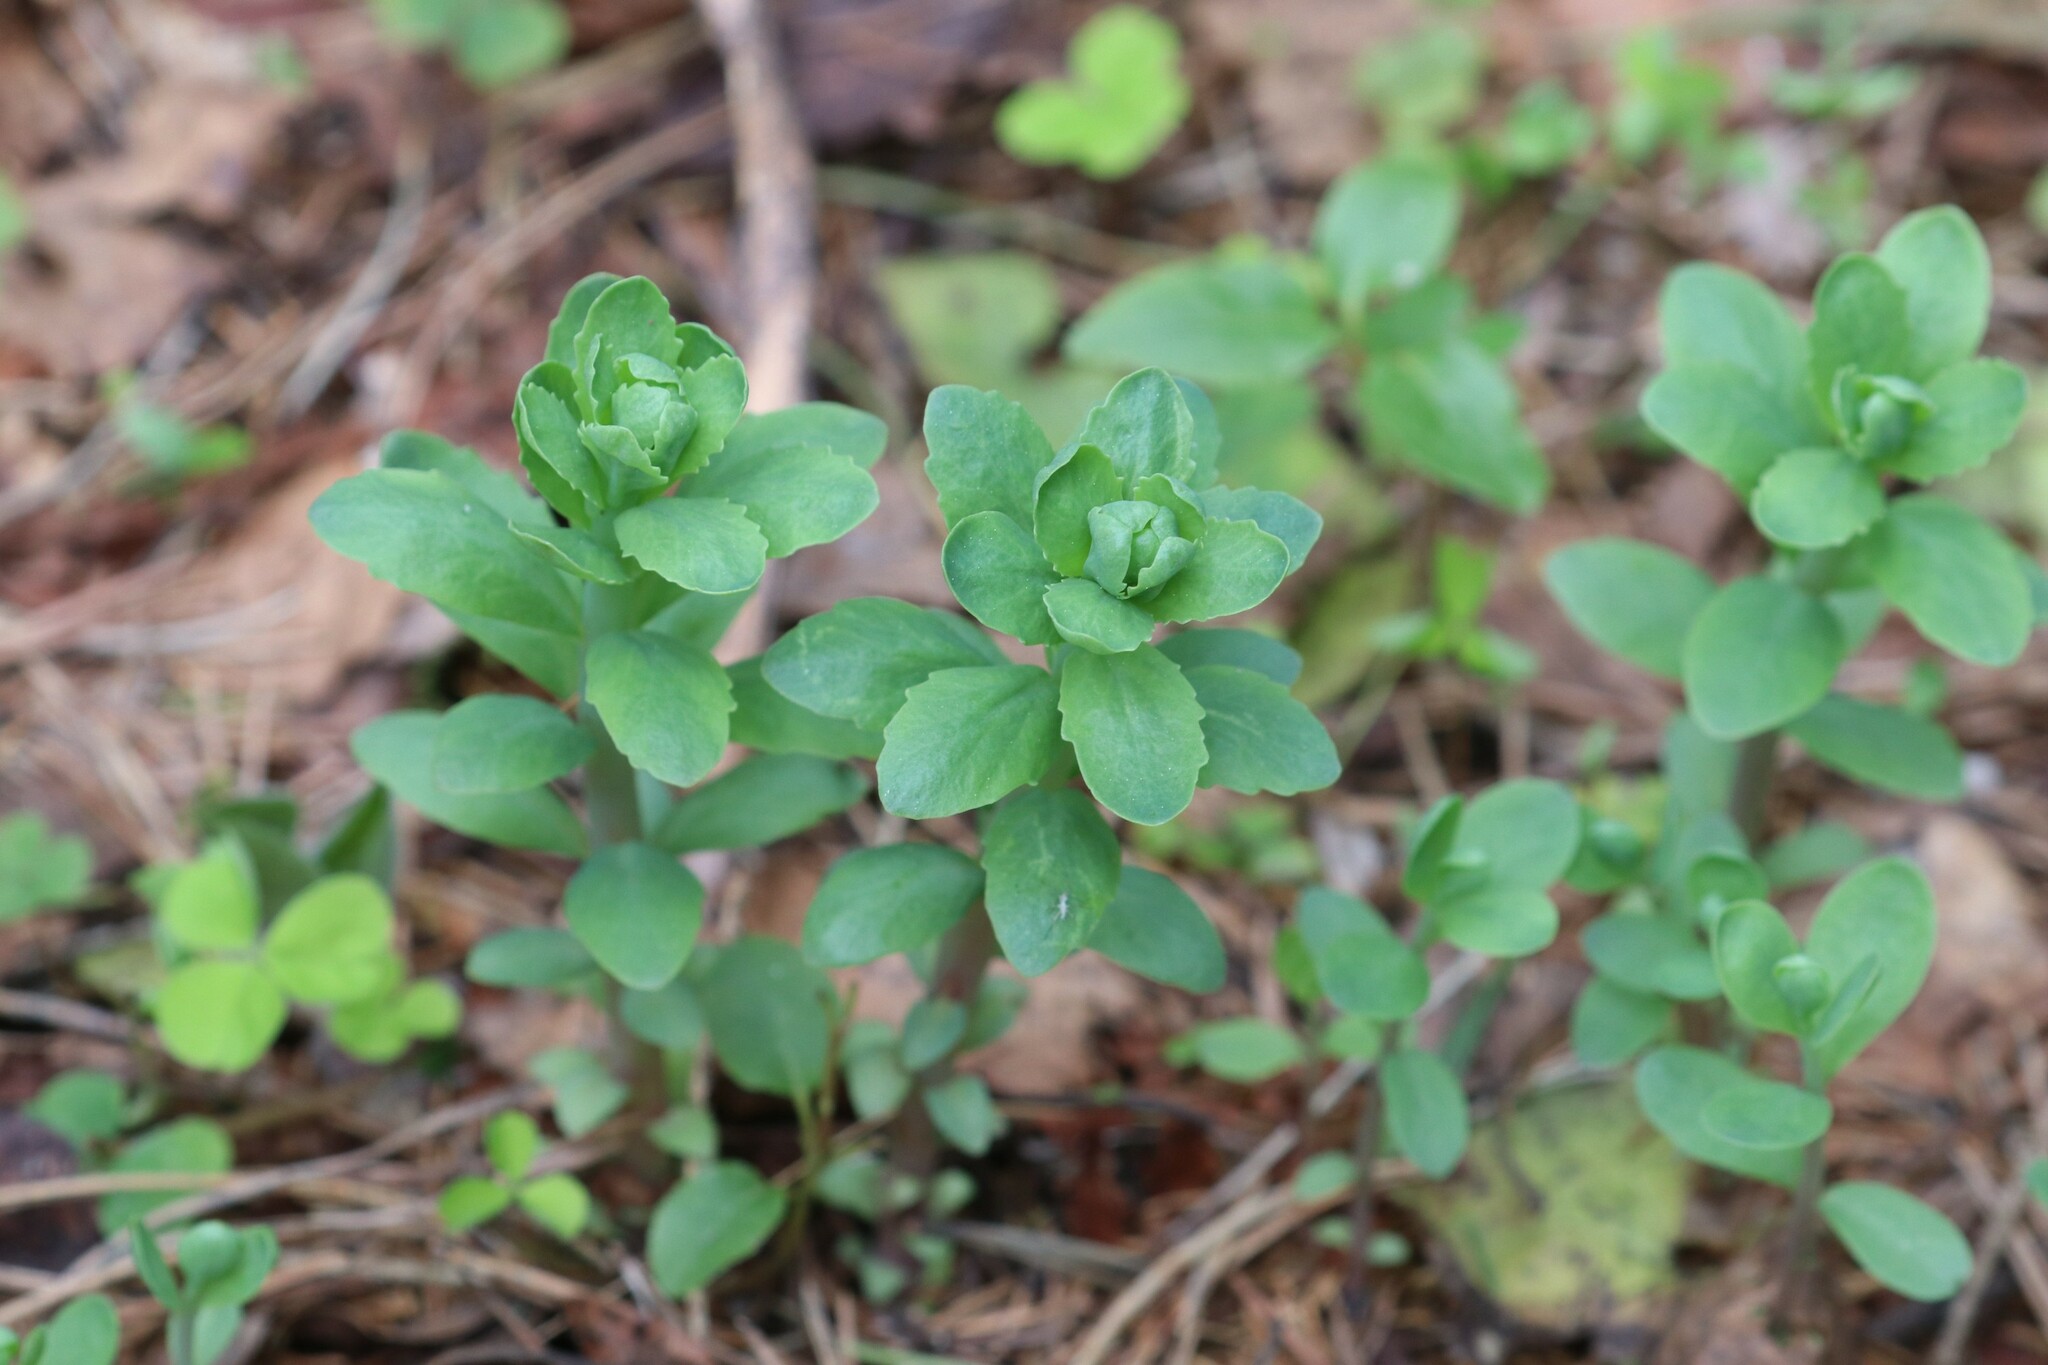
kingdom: Plantae
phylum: Tracheophyta
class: Magnoliopsida
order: Saxifragales
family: Crassulaceae
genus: Hylotelephium
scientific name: Hylotelephium telephium
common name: Live-forever
